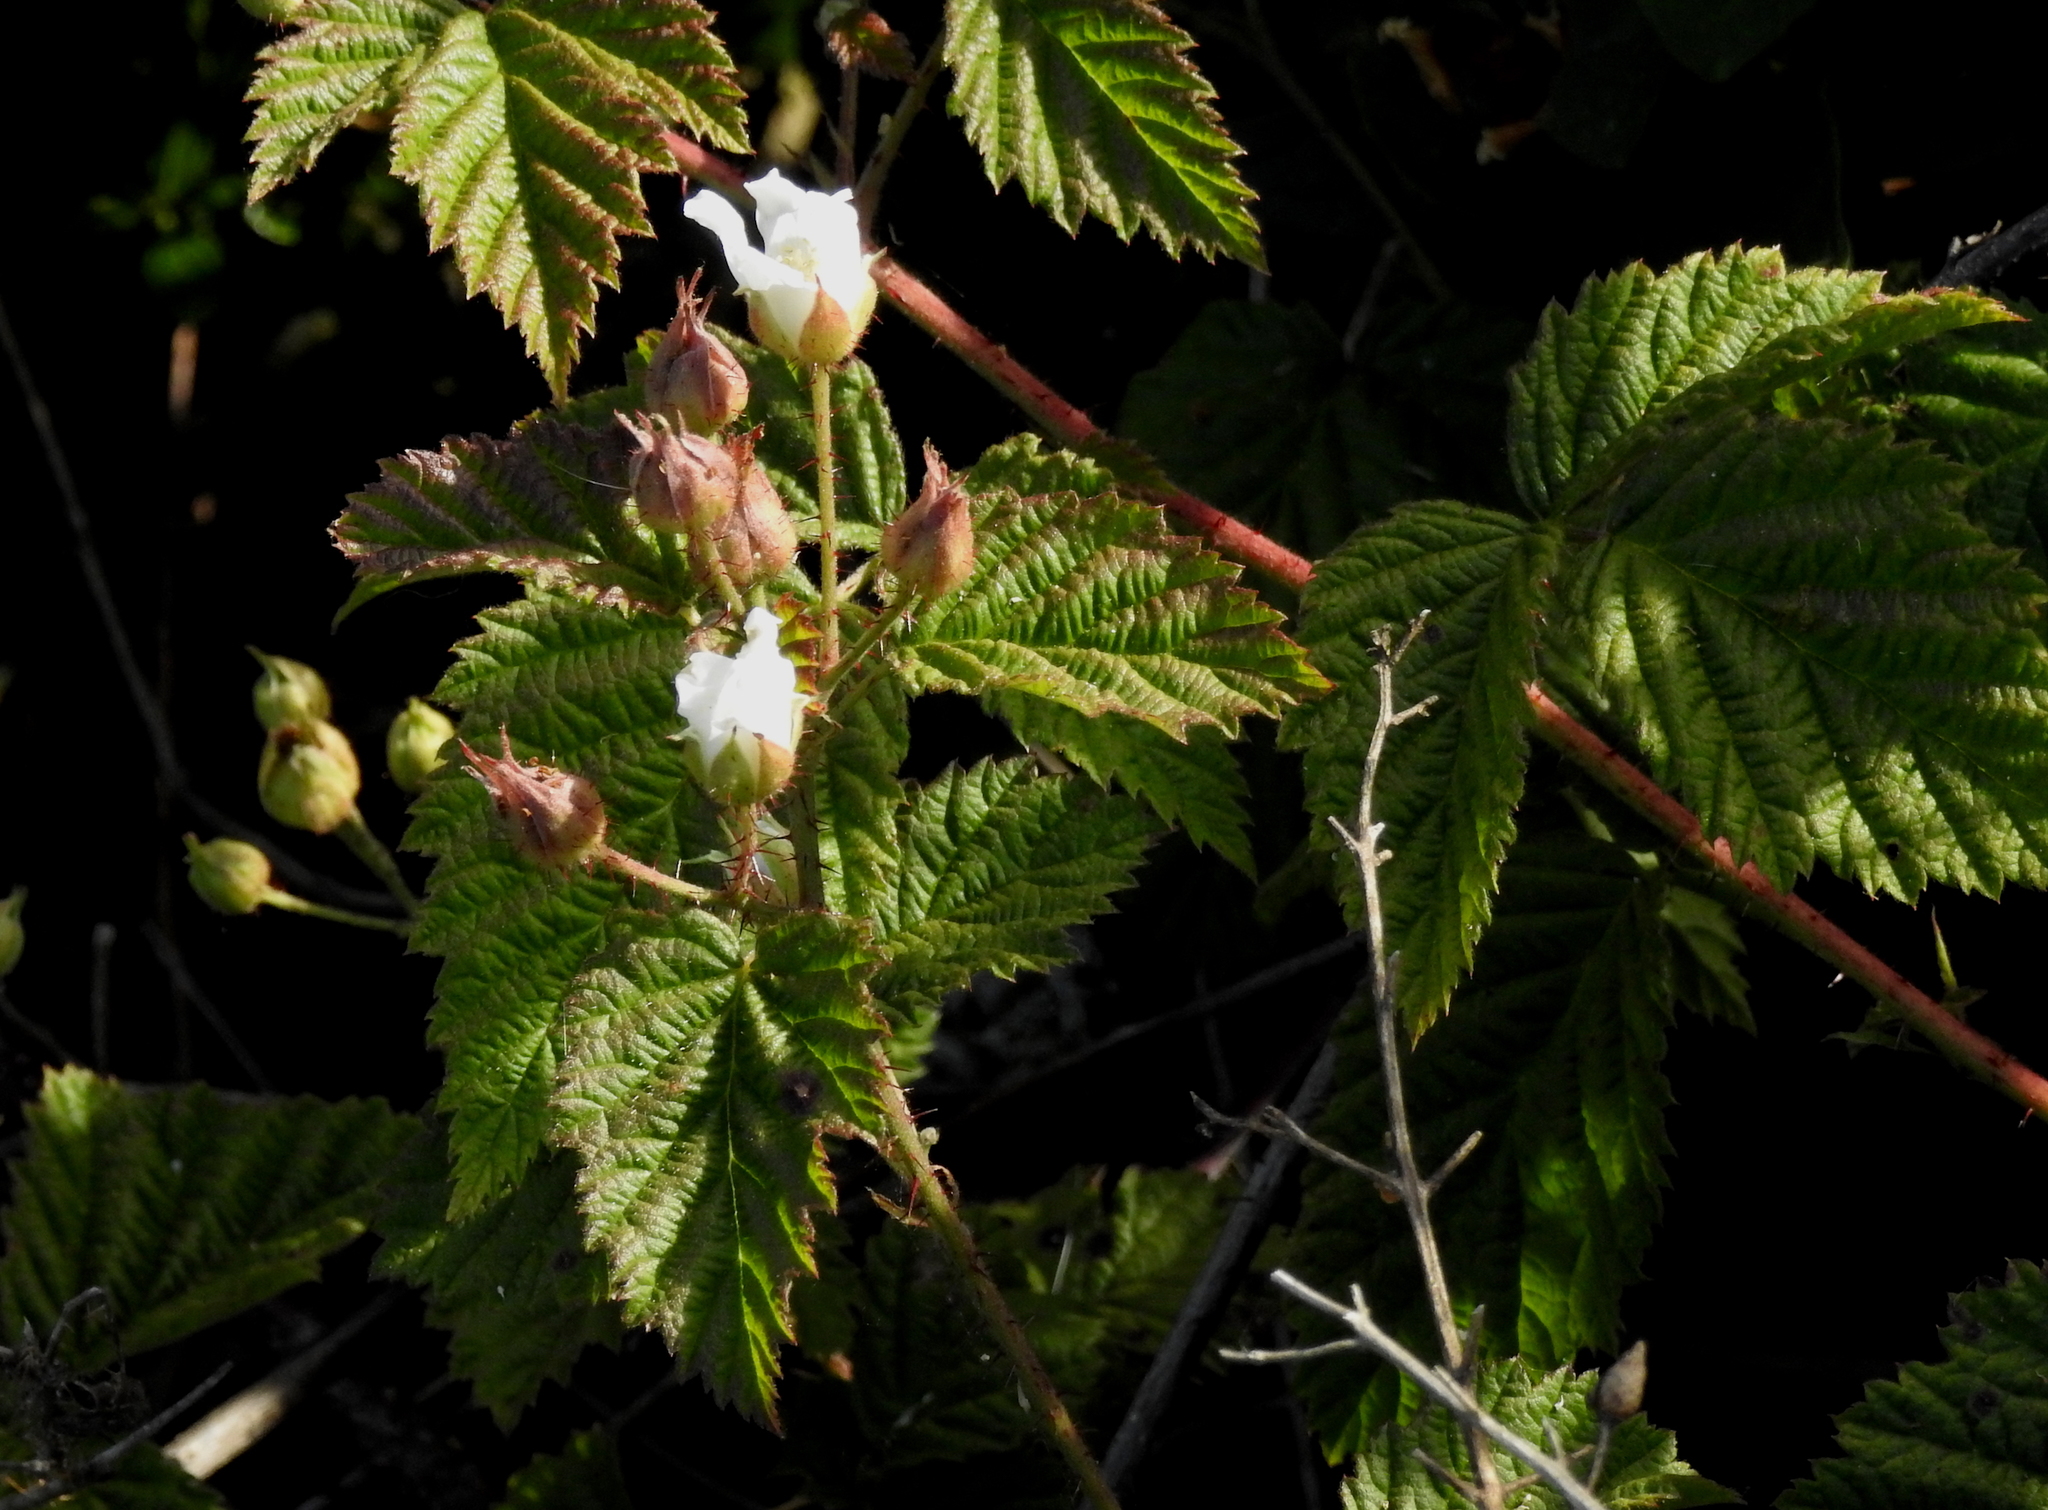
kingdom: Plantae
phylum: Tracheophyta
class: Magnoliopsida
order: Rosales
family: Rosaceae
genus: Rubus
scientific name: Rubus ursinus
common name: Pacific blackberry
